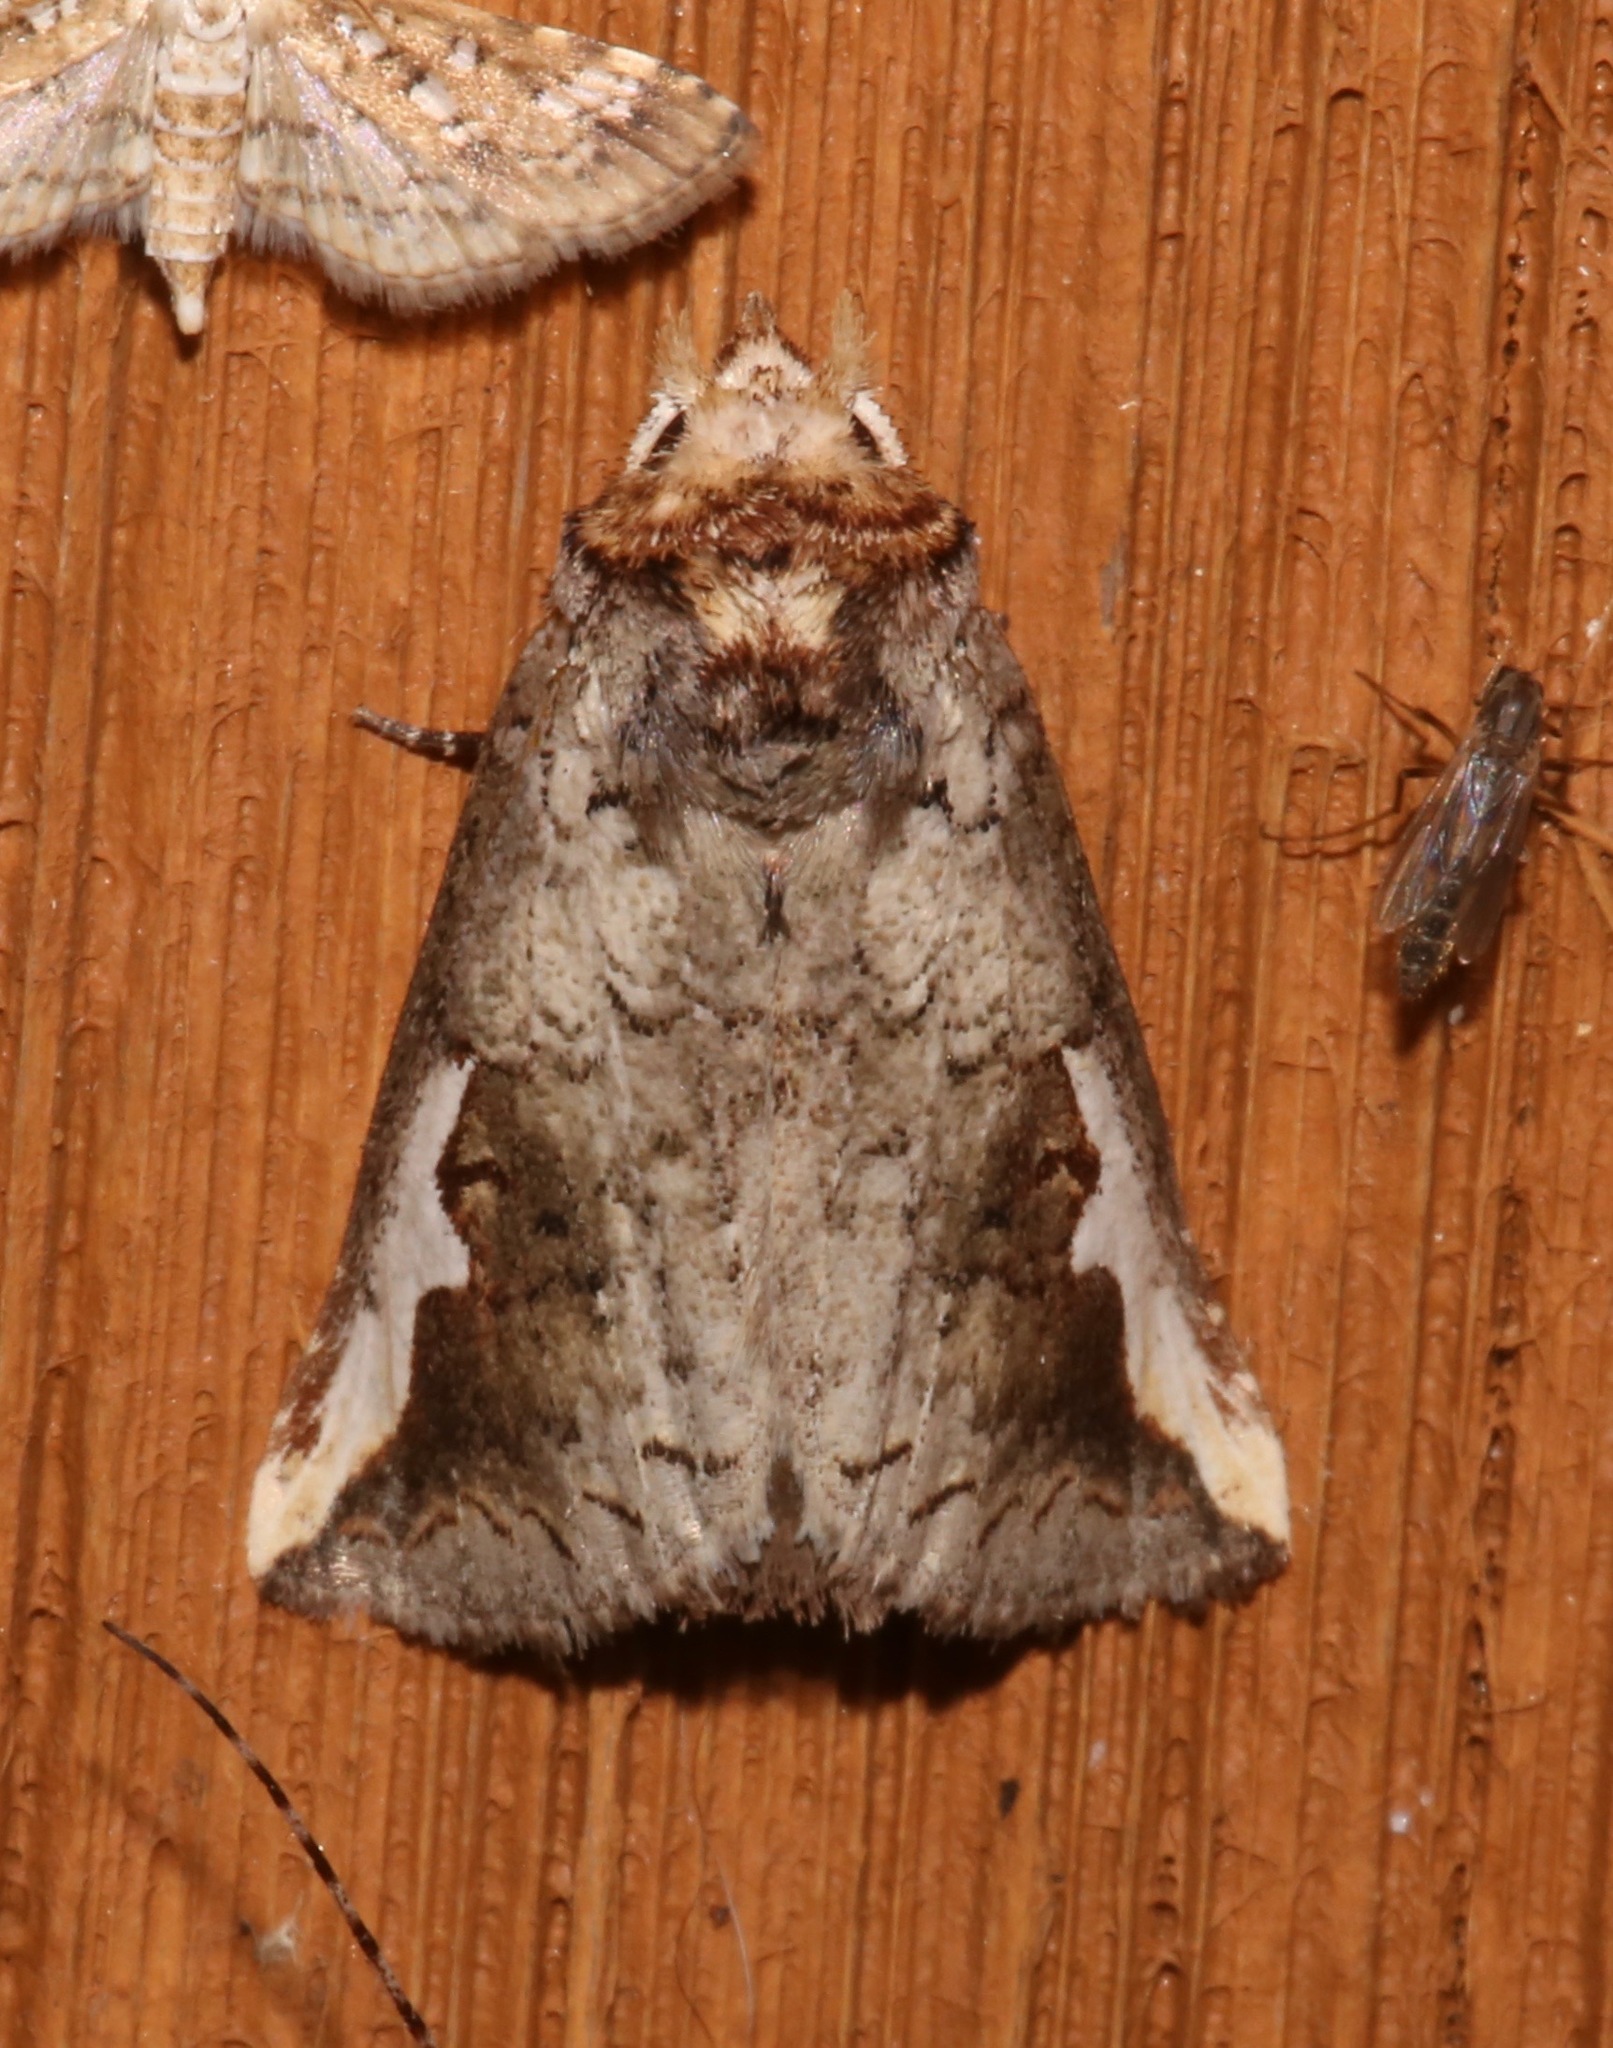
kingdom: Animalia
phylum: Arthropoda
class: Insecta
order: Lepidoptera
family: Notodontidae
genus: Symmerista
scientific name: Symmerista
